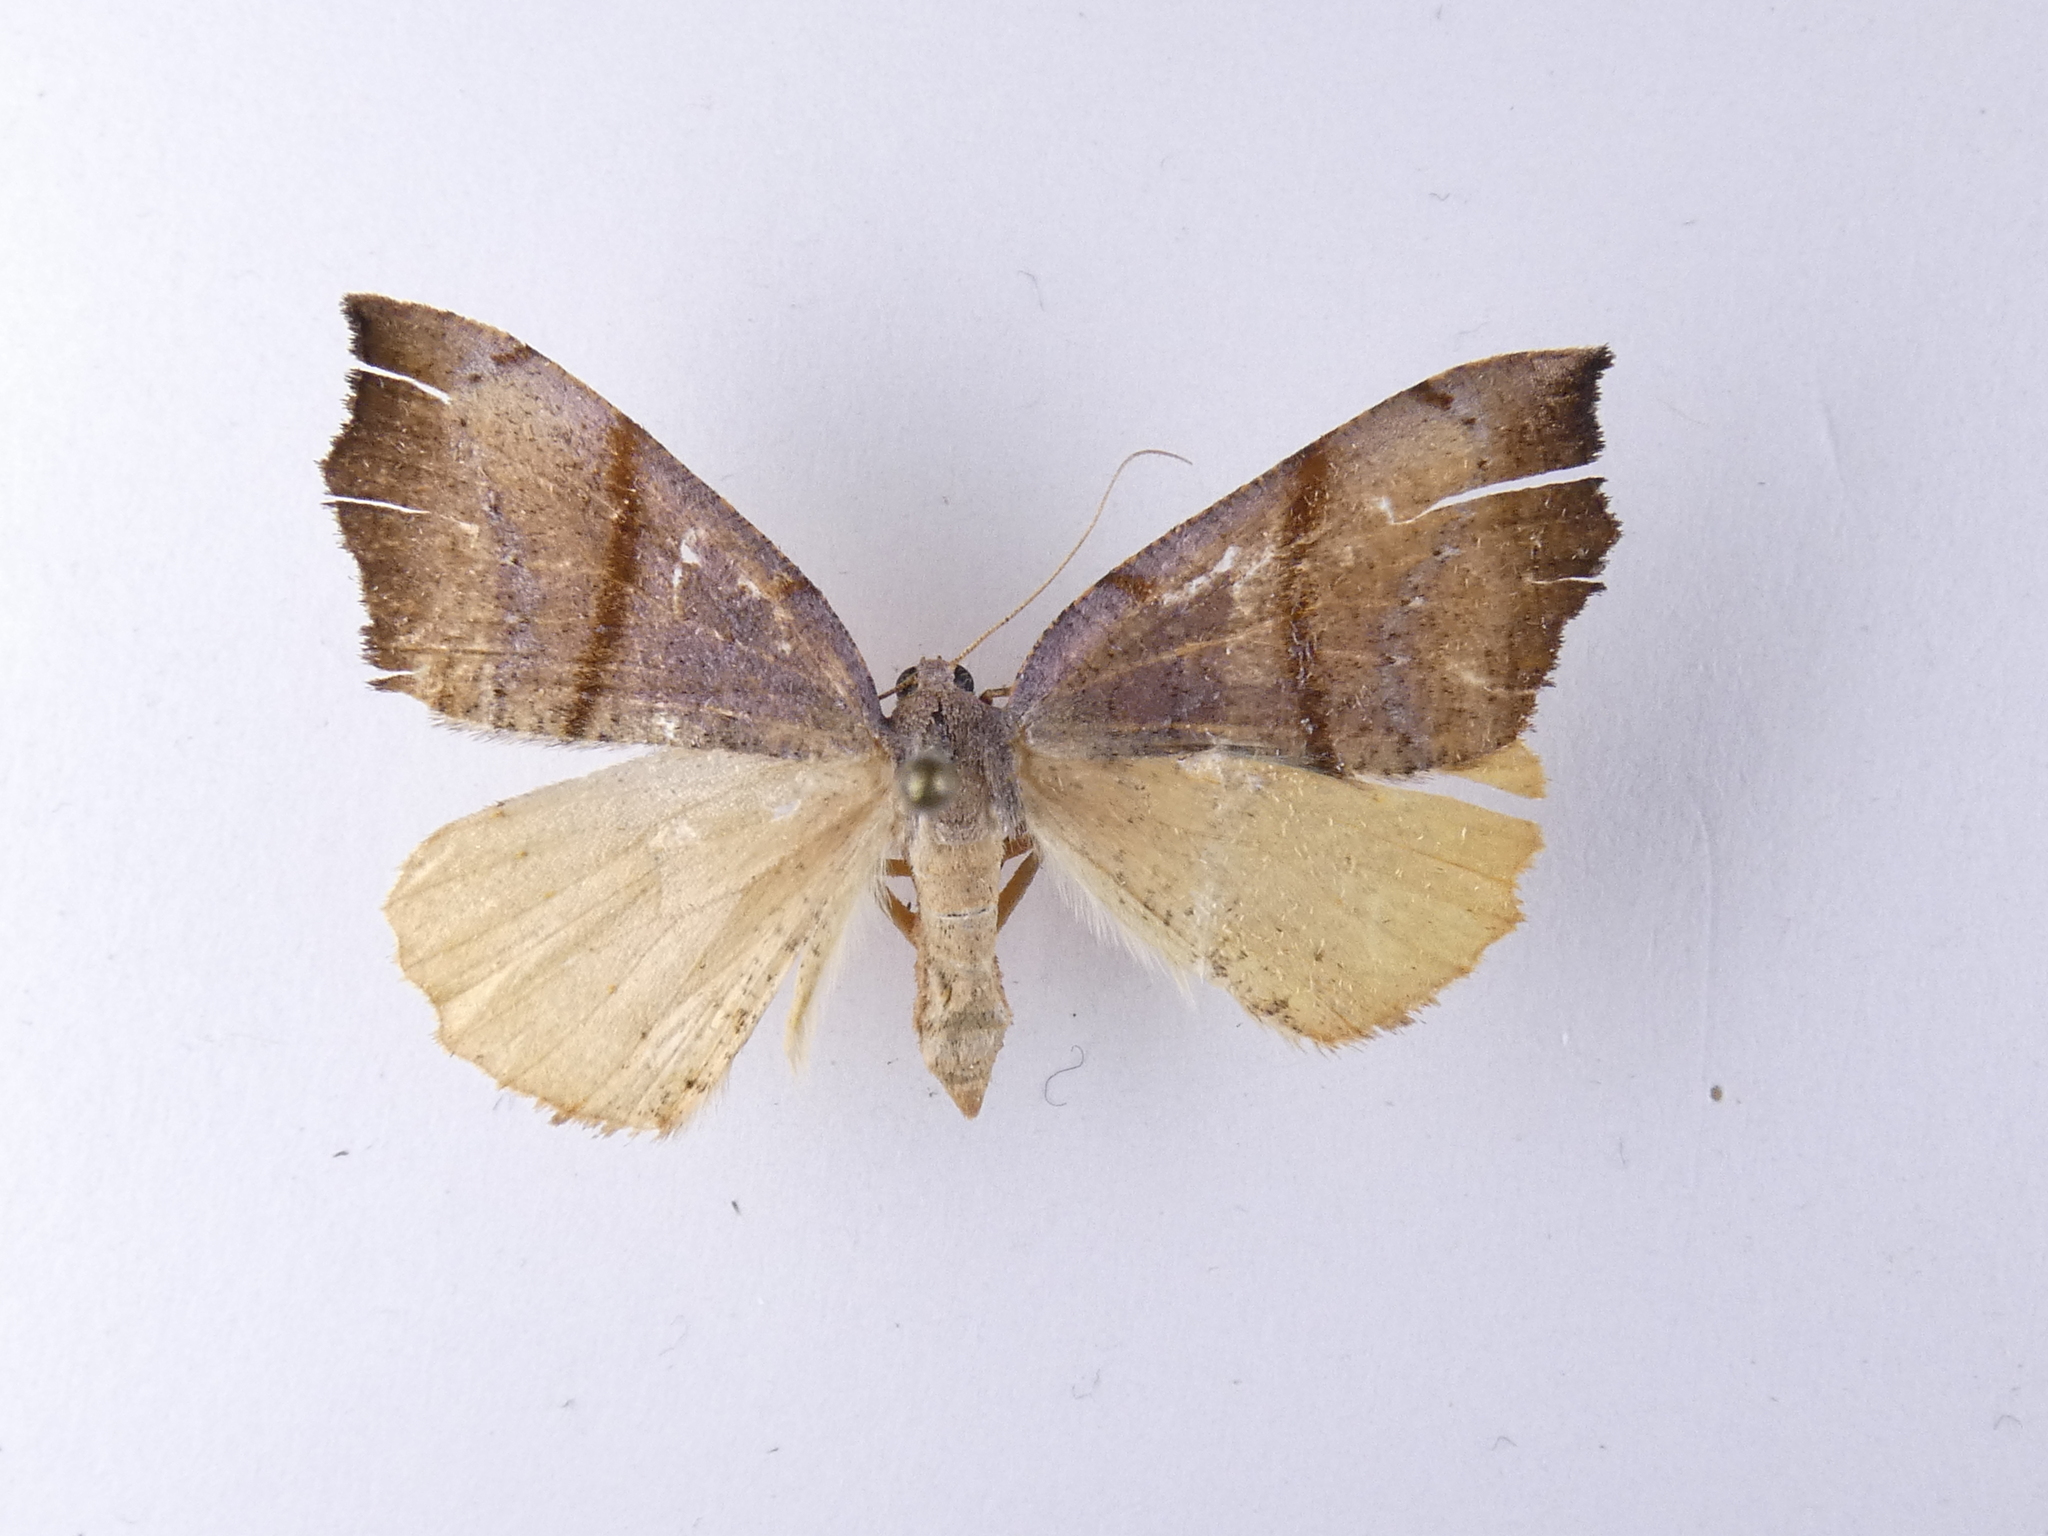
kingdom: Animalia
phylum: Arthropoda
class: Insecta
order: Lepidoptera
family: Geometridae
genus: Sestra
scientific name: Sestra flexata
